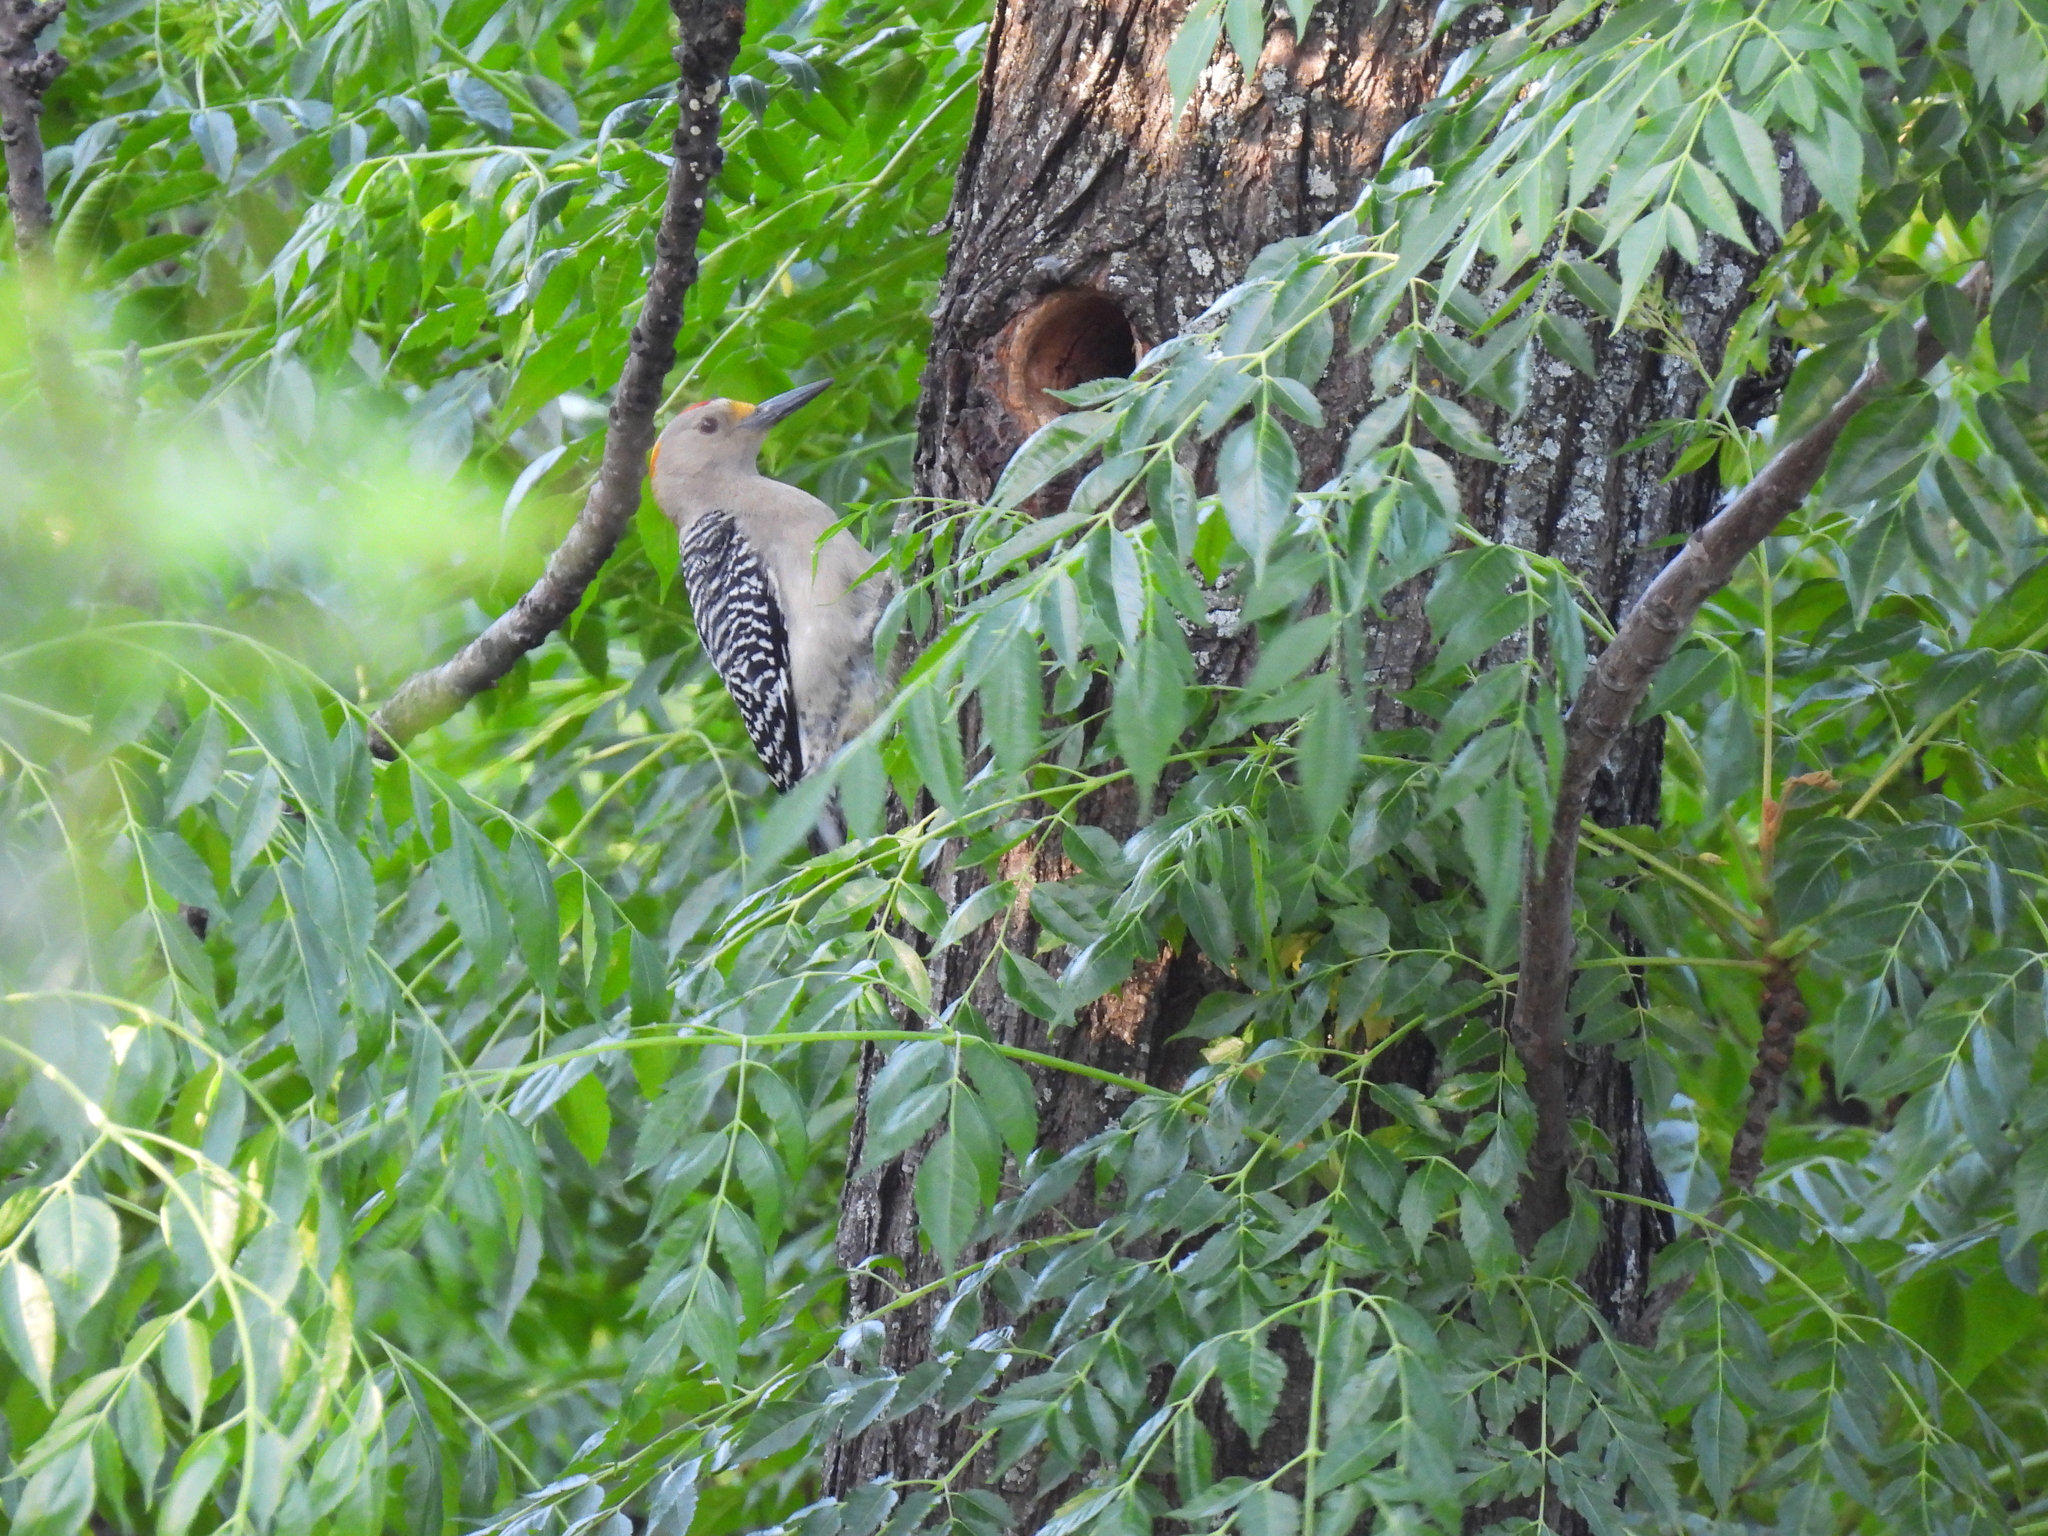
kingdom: Animalia
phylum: Chordata
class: Aves
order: Piciformes
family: Picidae
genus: Melanerpes
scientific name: Melanerpes aurifrons
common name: Golden-fronted woodpecker
